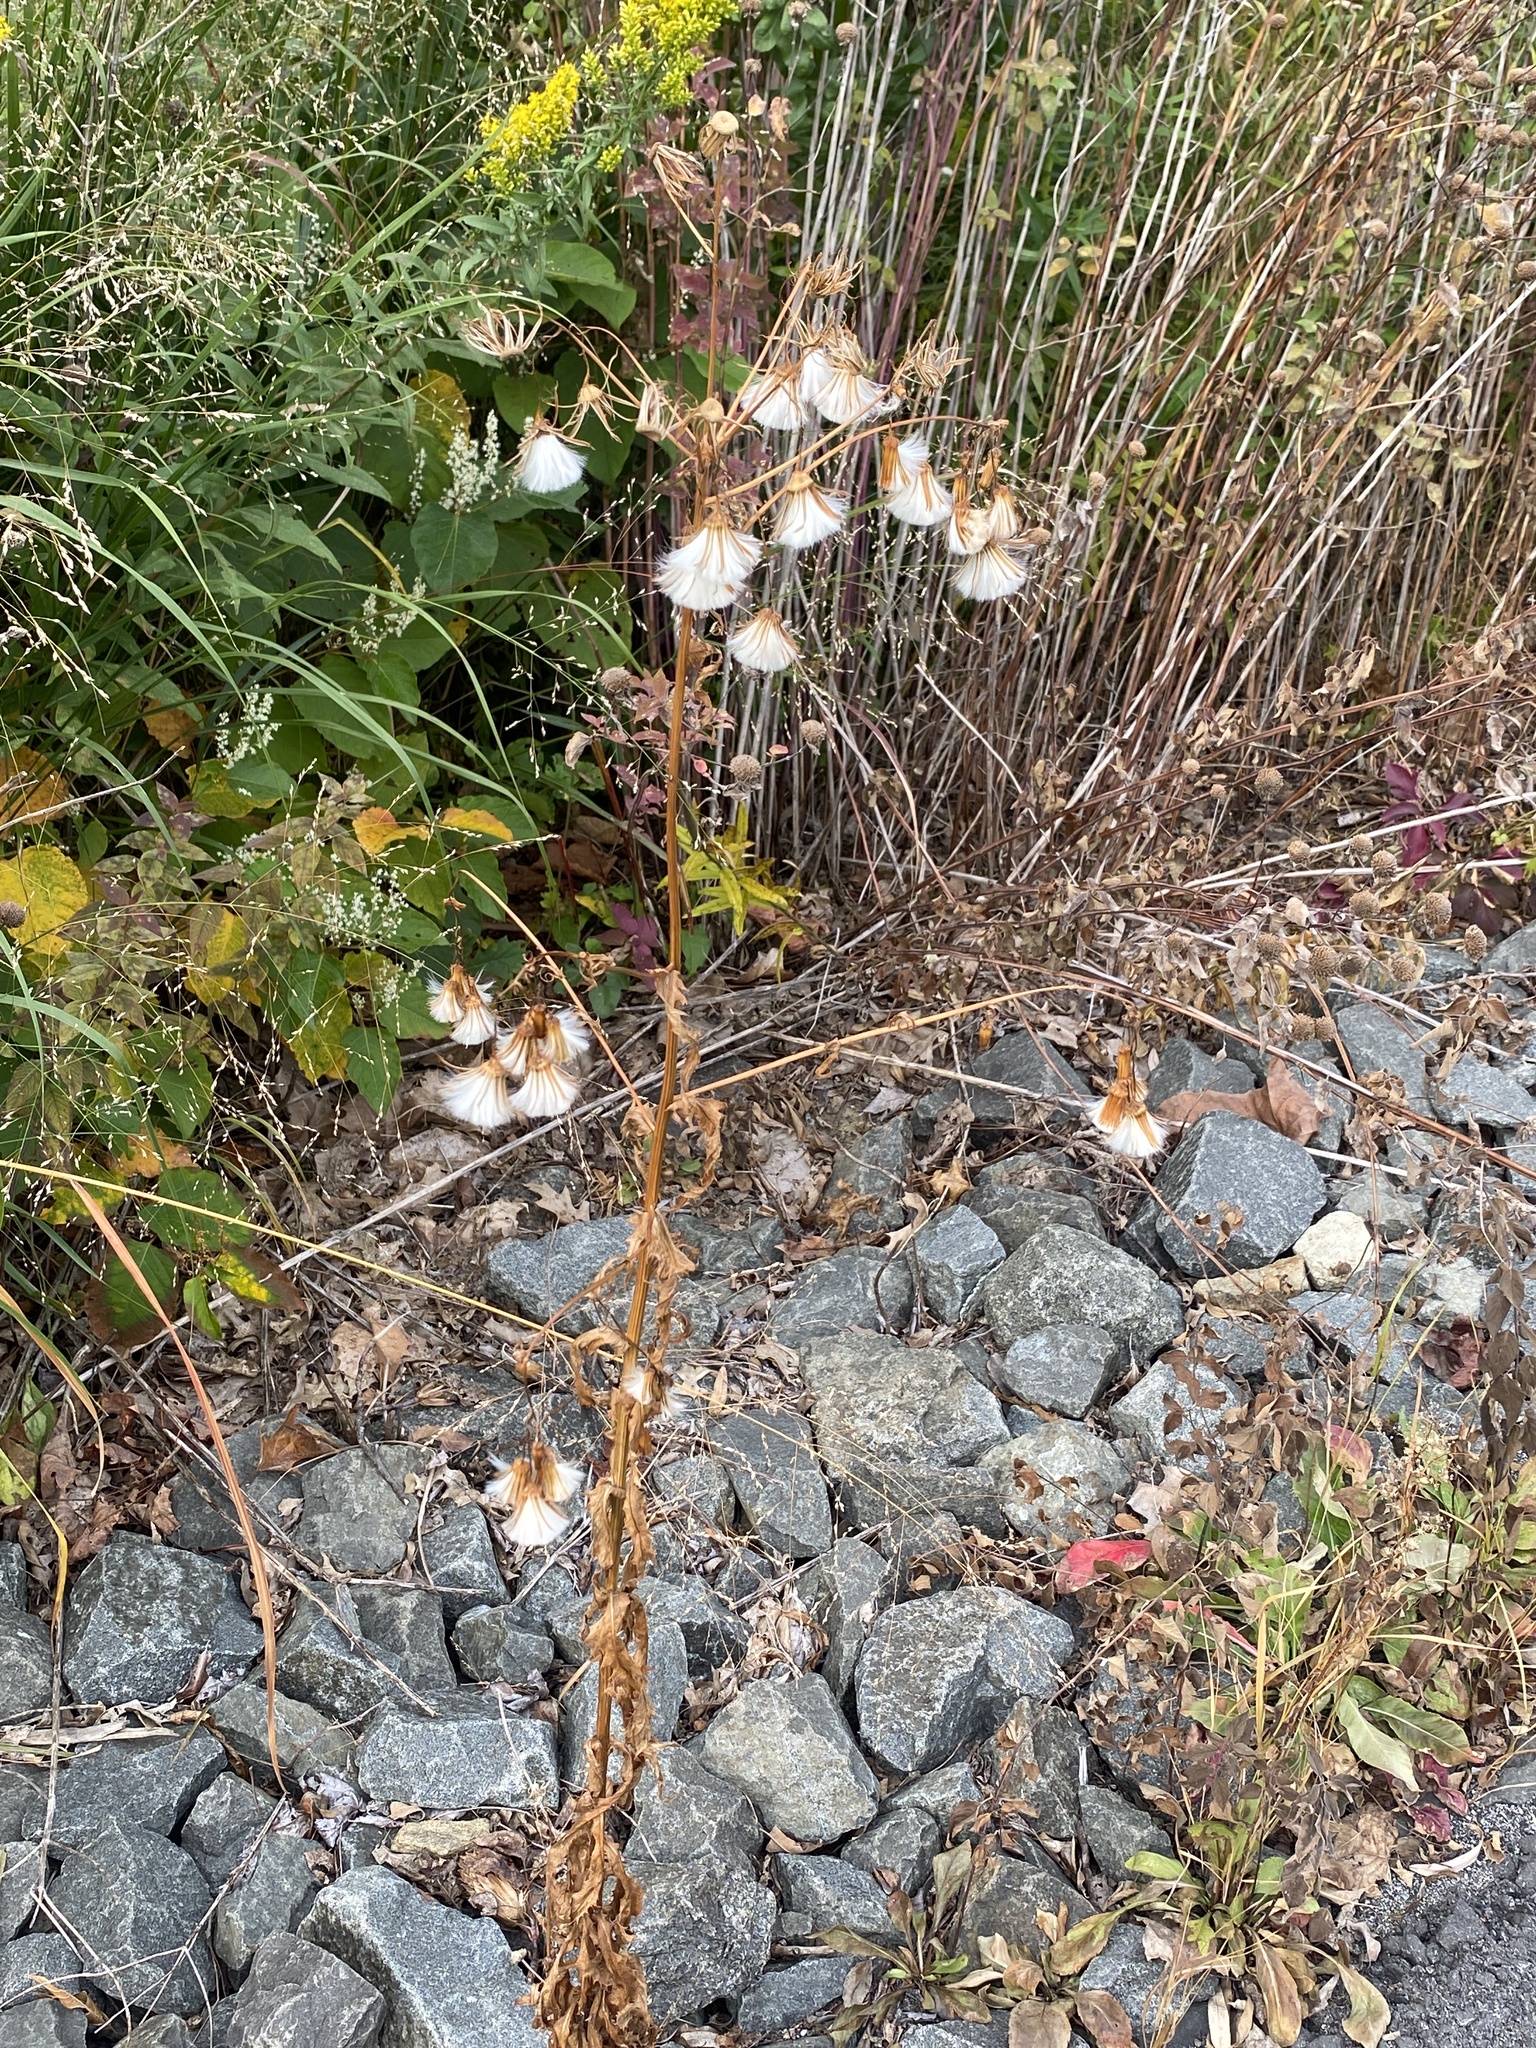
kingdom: Plantae
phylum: Tracheophyta
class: Magnoliopsida
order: Asterales
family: Asteraceae
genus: Erechtites
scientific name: Erechtites hieraciifolius
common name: American burnweed
